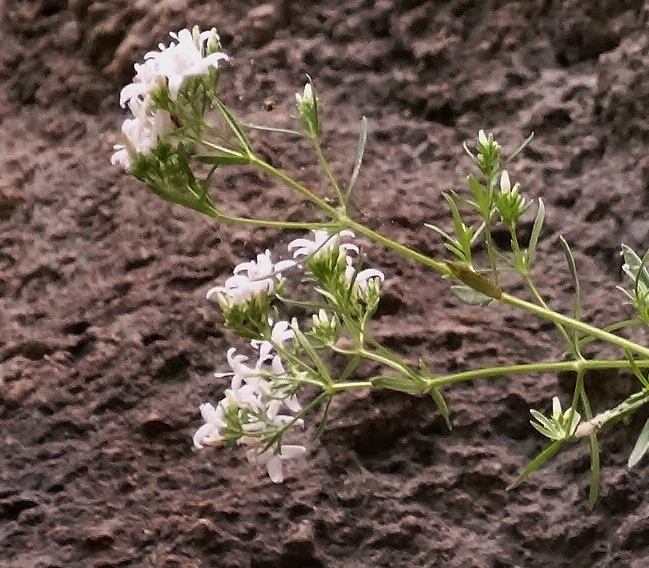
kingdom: Plantae
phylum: Tracheophyta
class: Magnoliopsida
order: Gentianales
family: Rubiaceae
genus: Stenaria
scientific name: Stenaria nigricans
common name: Diamondflowers
